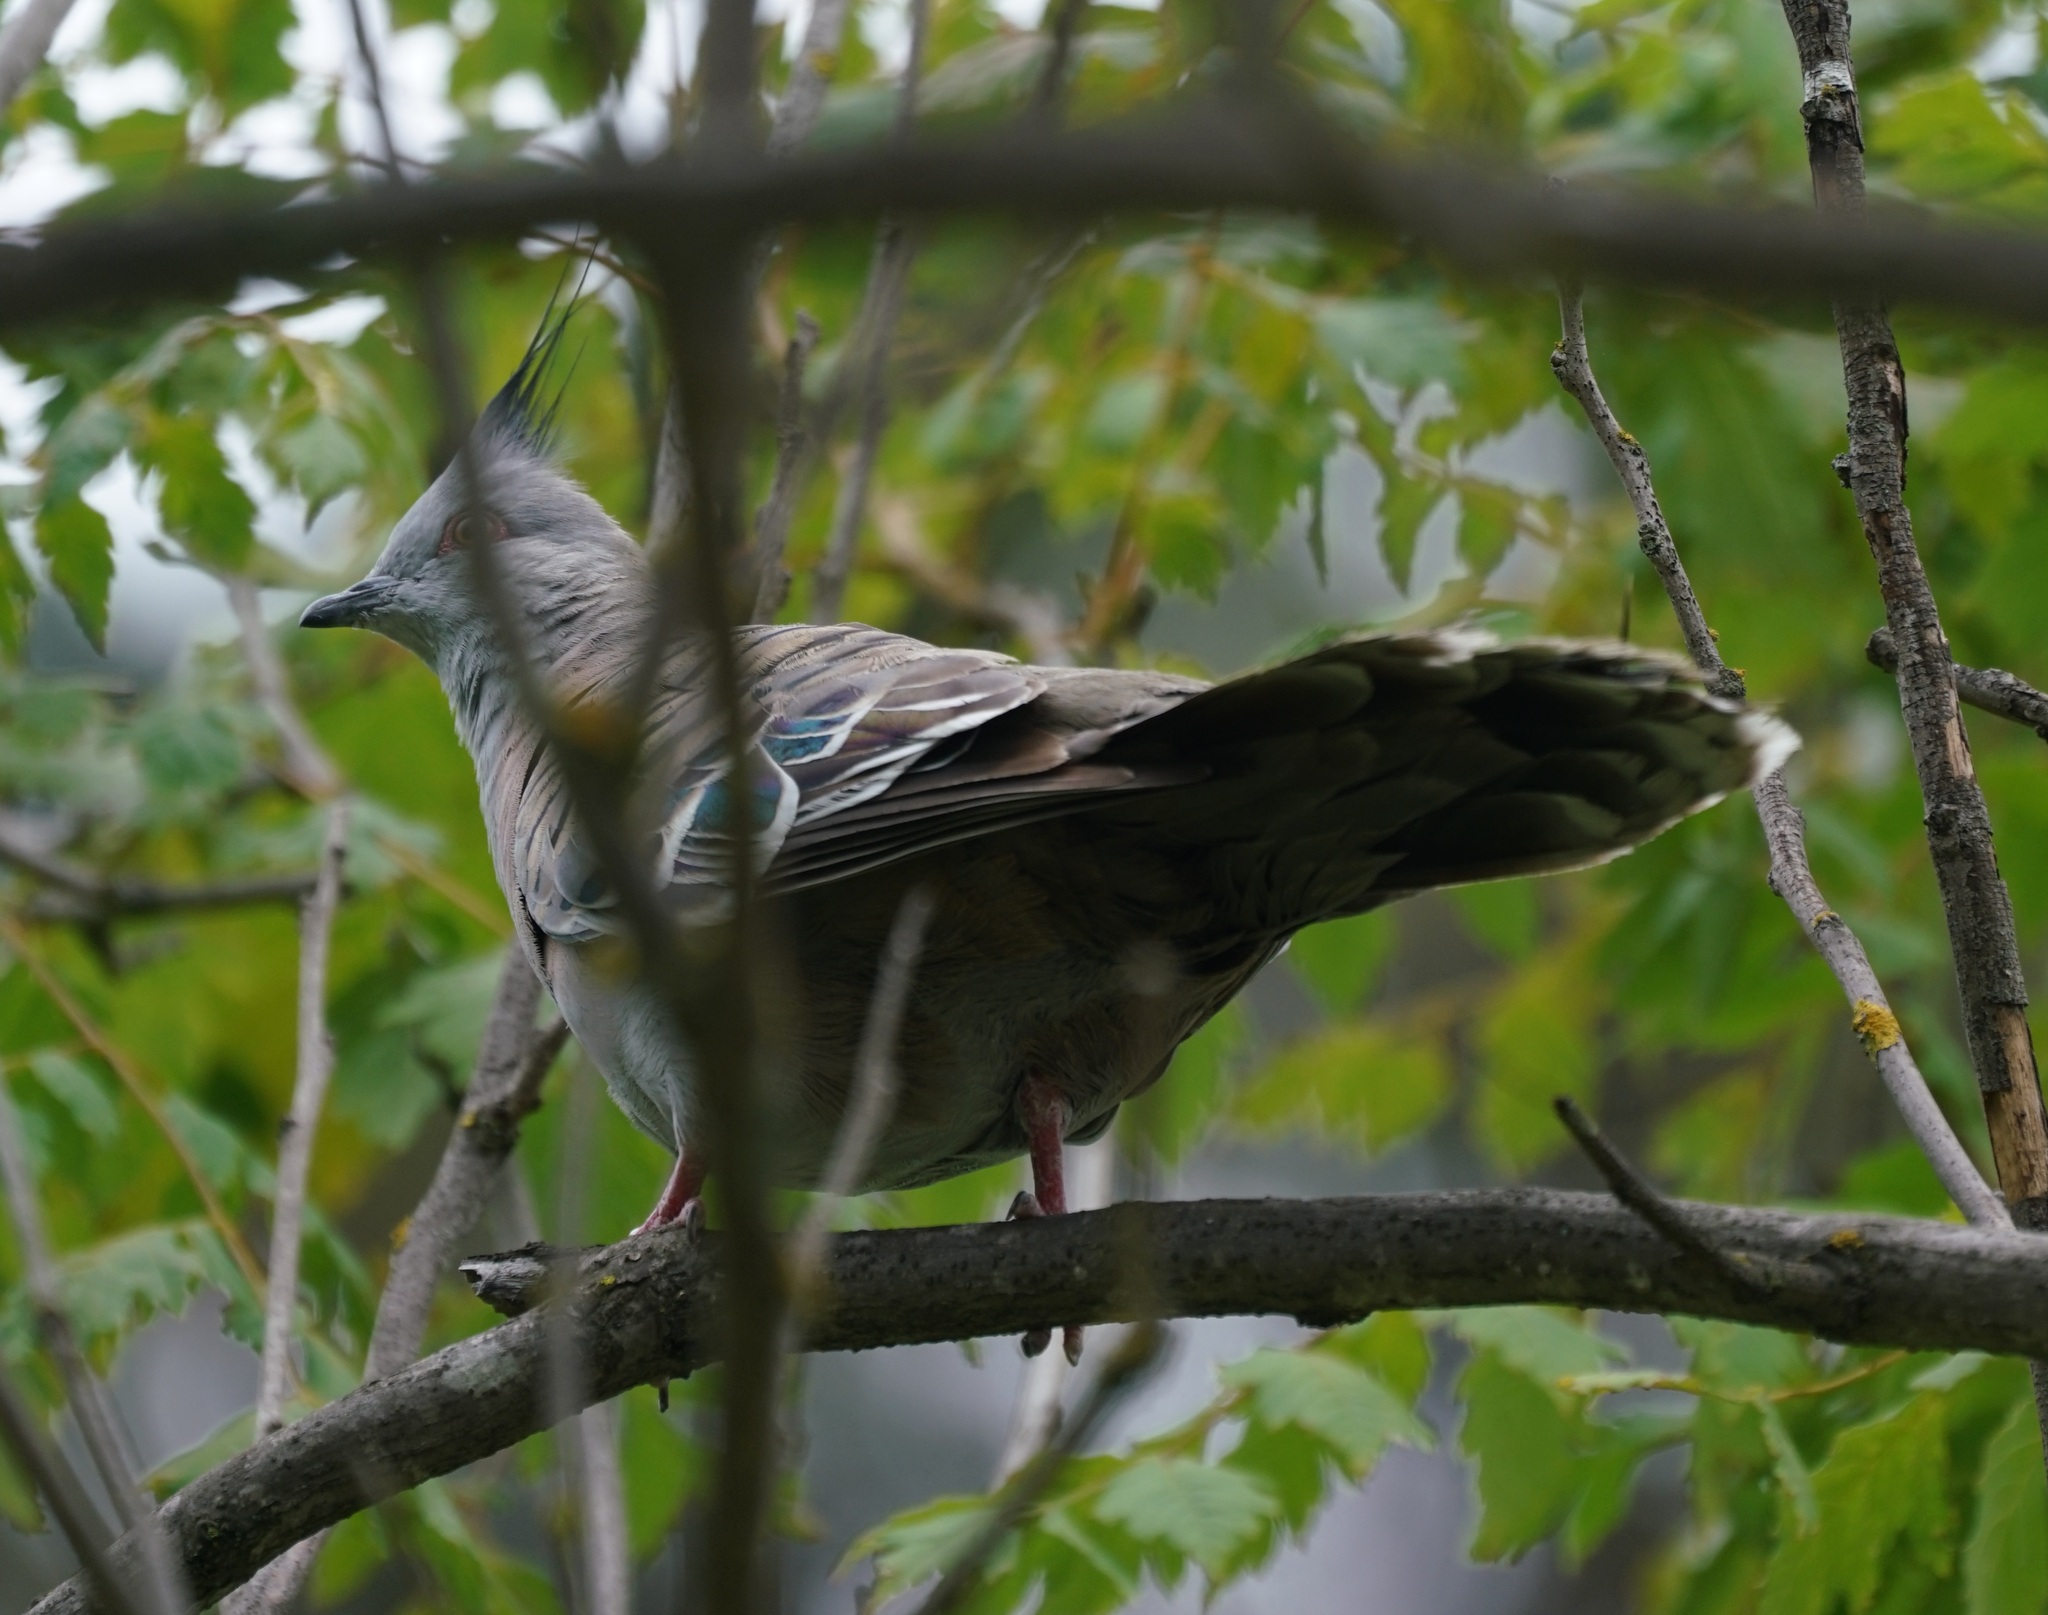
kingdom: Animalia
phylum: Chordata
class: Aves
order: Columbiformes
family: Columbidae
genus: Ocyphaps
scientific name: Ocyphaps lophotes
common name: Crested pigeon
